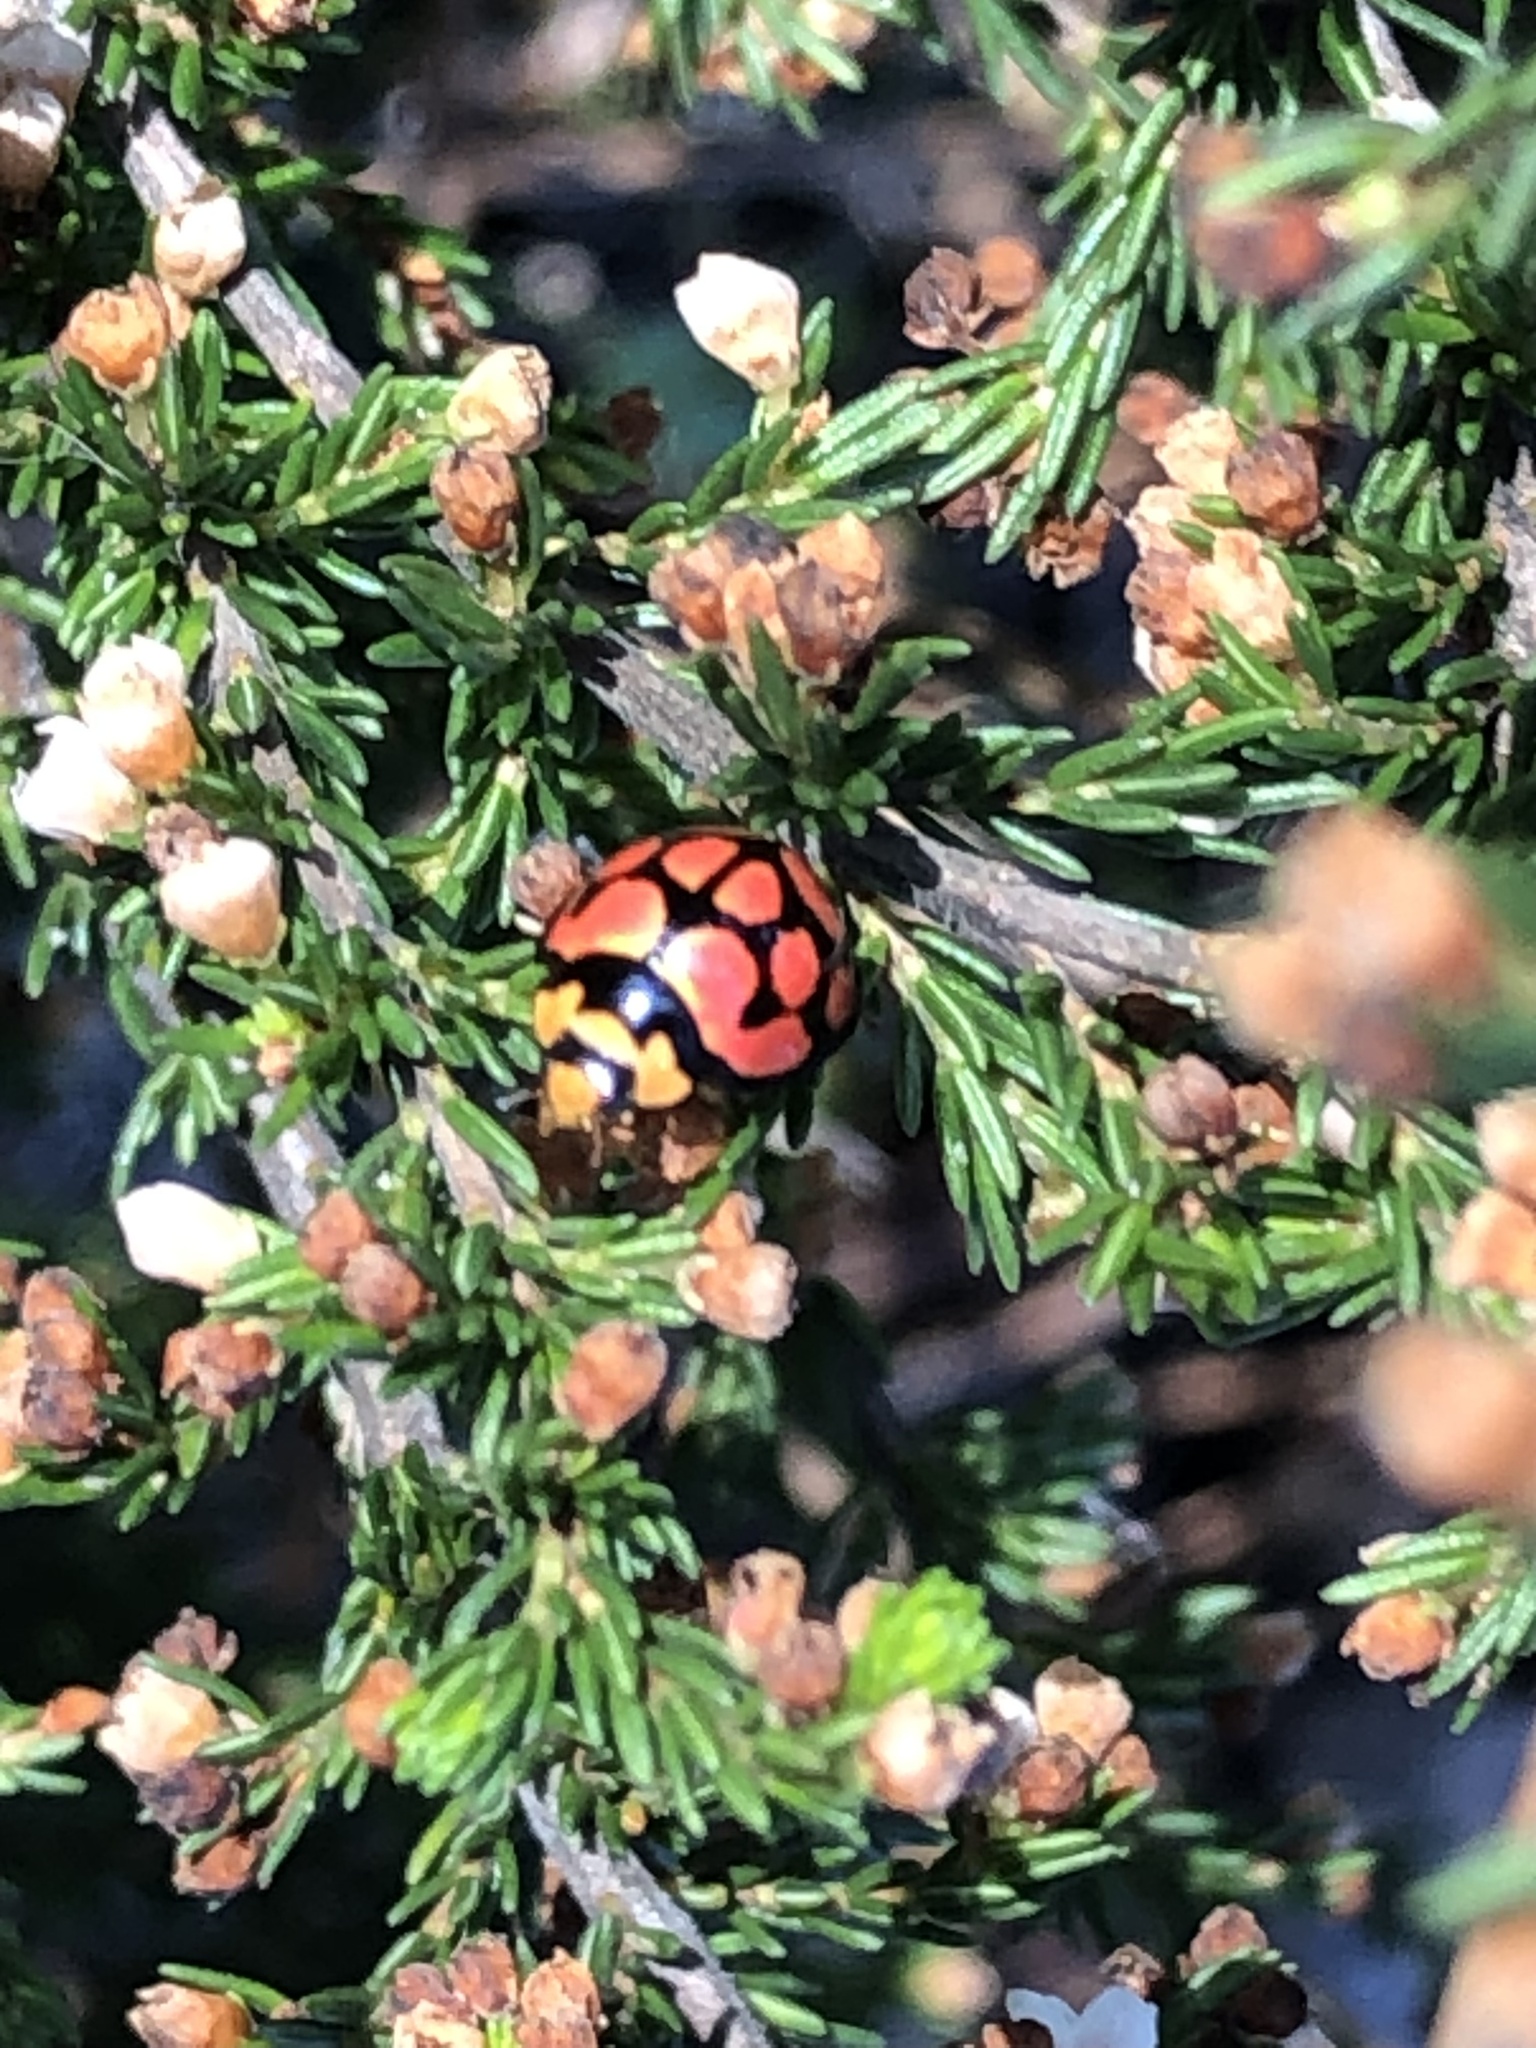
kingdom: Animalia
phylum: Arthropoda
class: Insecta
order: Coleoptera
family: Coccinellidae
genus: Cheilomenes
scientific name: Cheilomenes lunata
